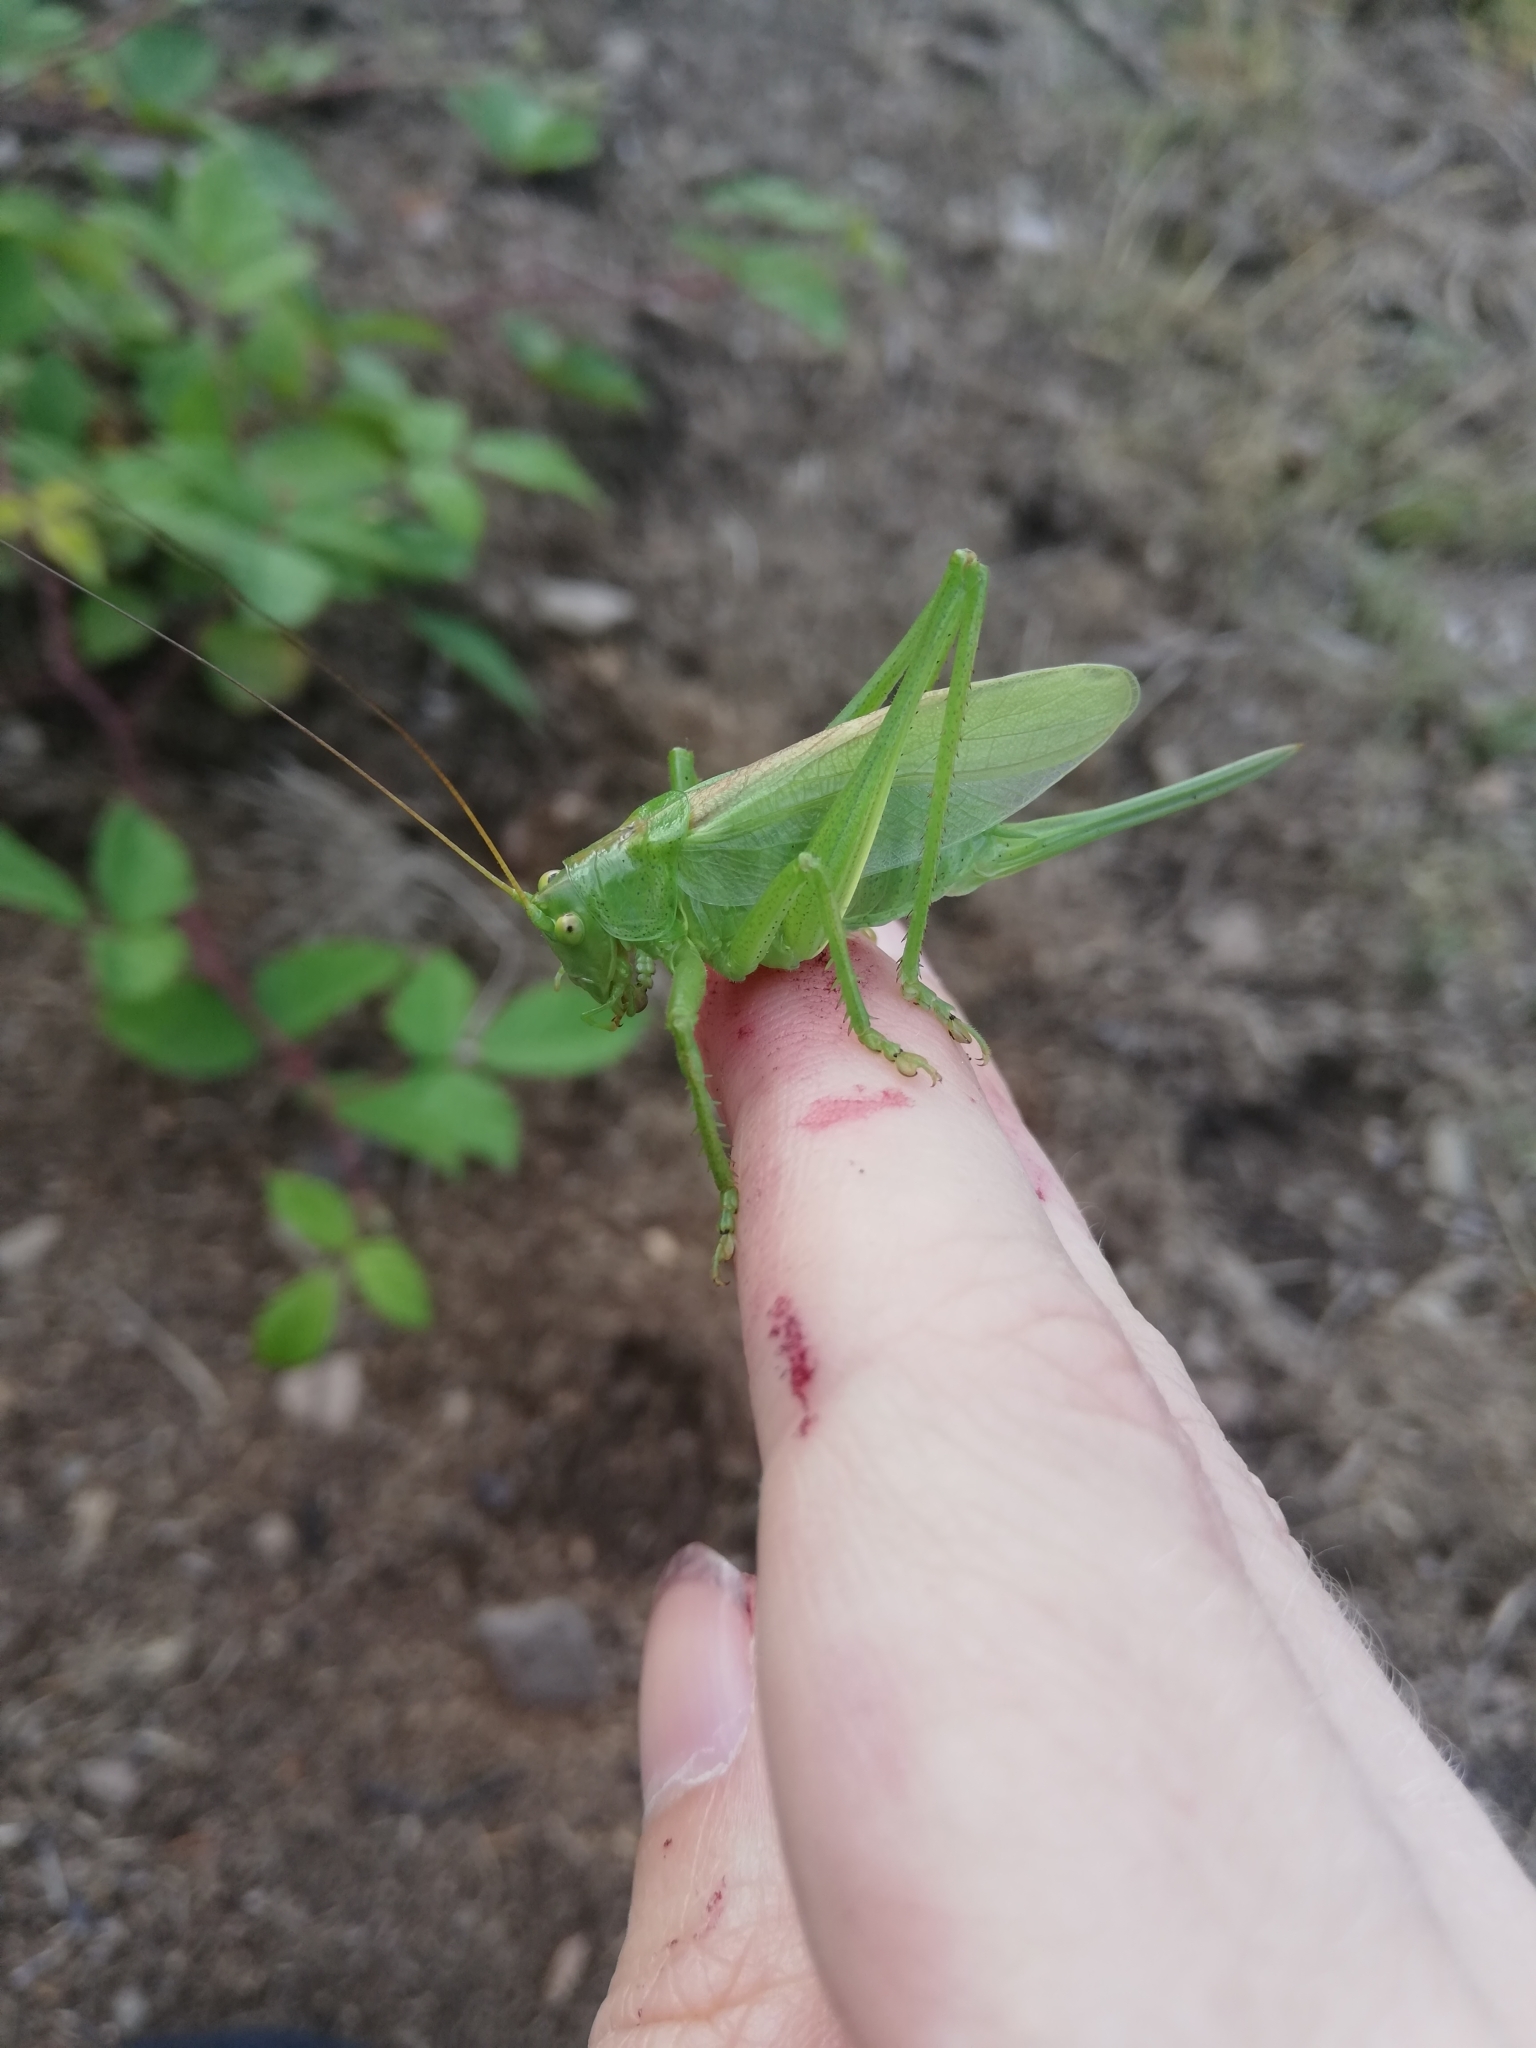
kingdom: Animalia
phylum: Arthropoda
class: Insecta
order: Orthoptera
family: Tettigoniidae
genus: Tettigonia
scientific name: Tettigonia cantans
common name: Upland green bush-cricket
